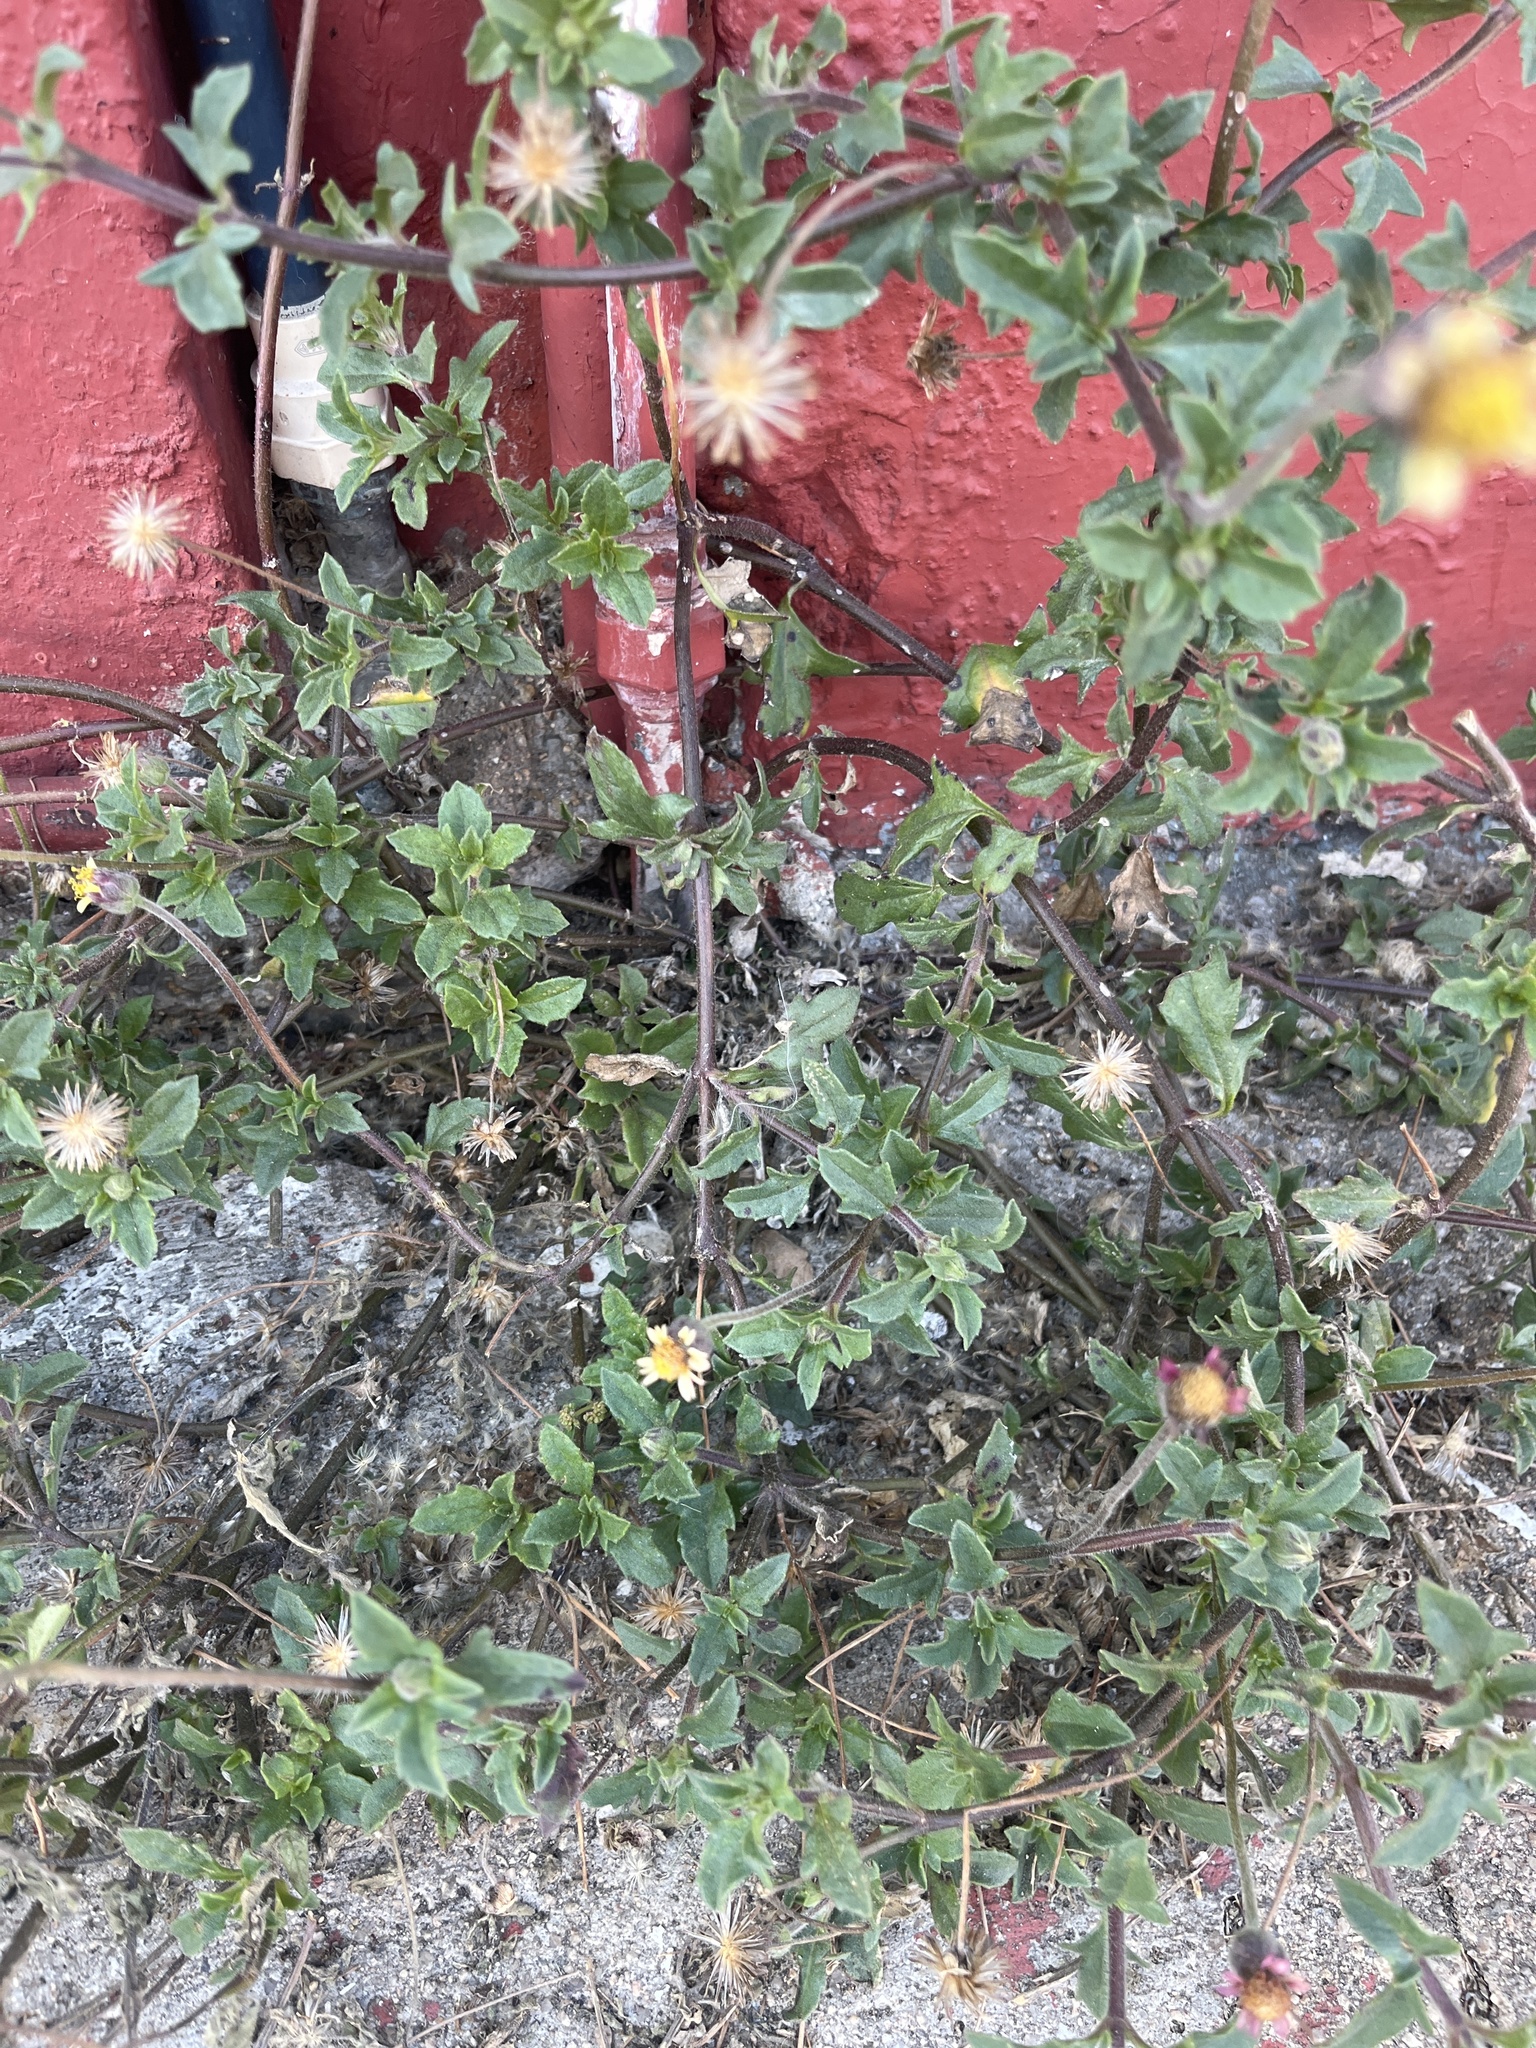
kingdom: Plantae
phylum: Tracheophyta
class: Magnoliopsida
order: Asterales
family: Asteraceae
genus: Tridax
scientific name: Tridax procumbens
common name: Coatbuttons
